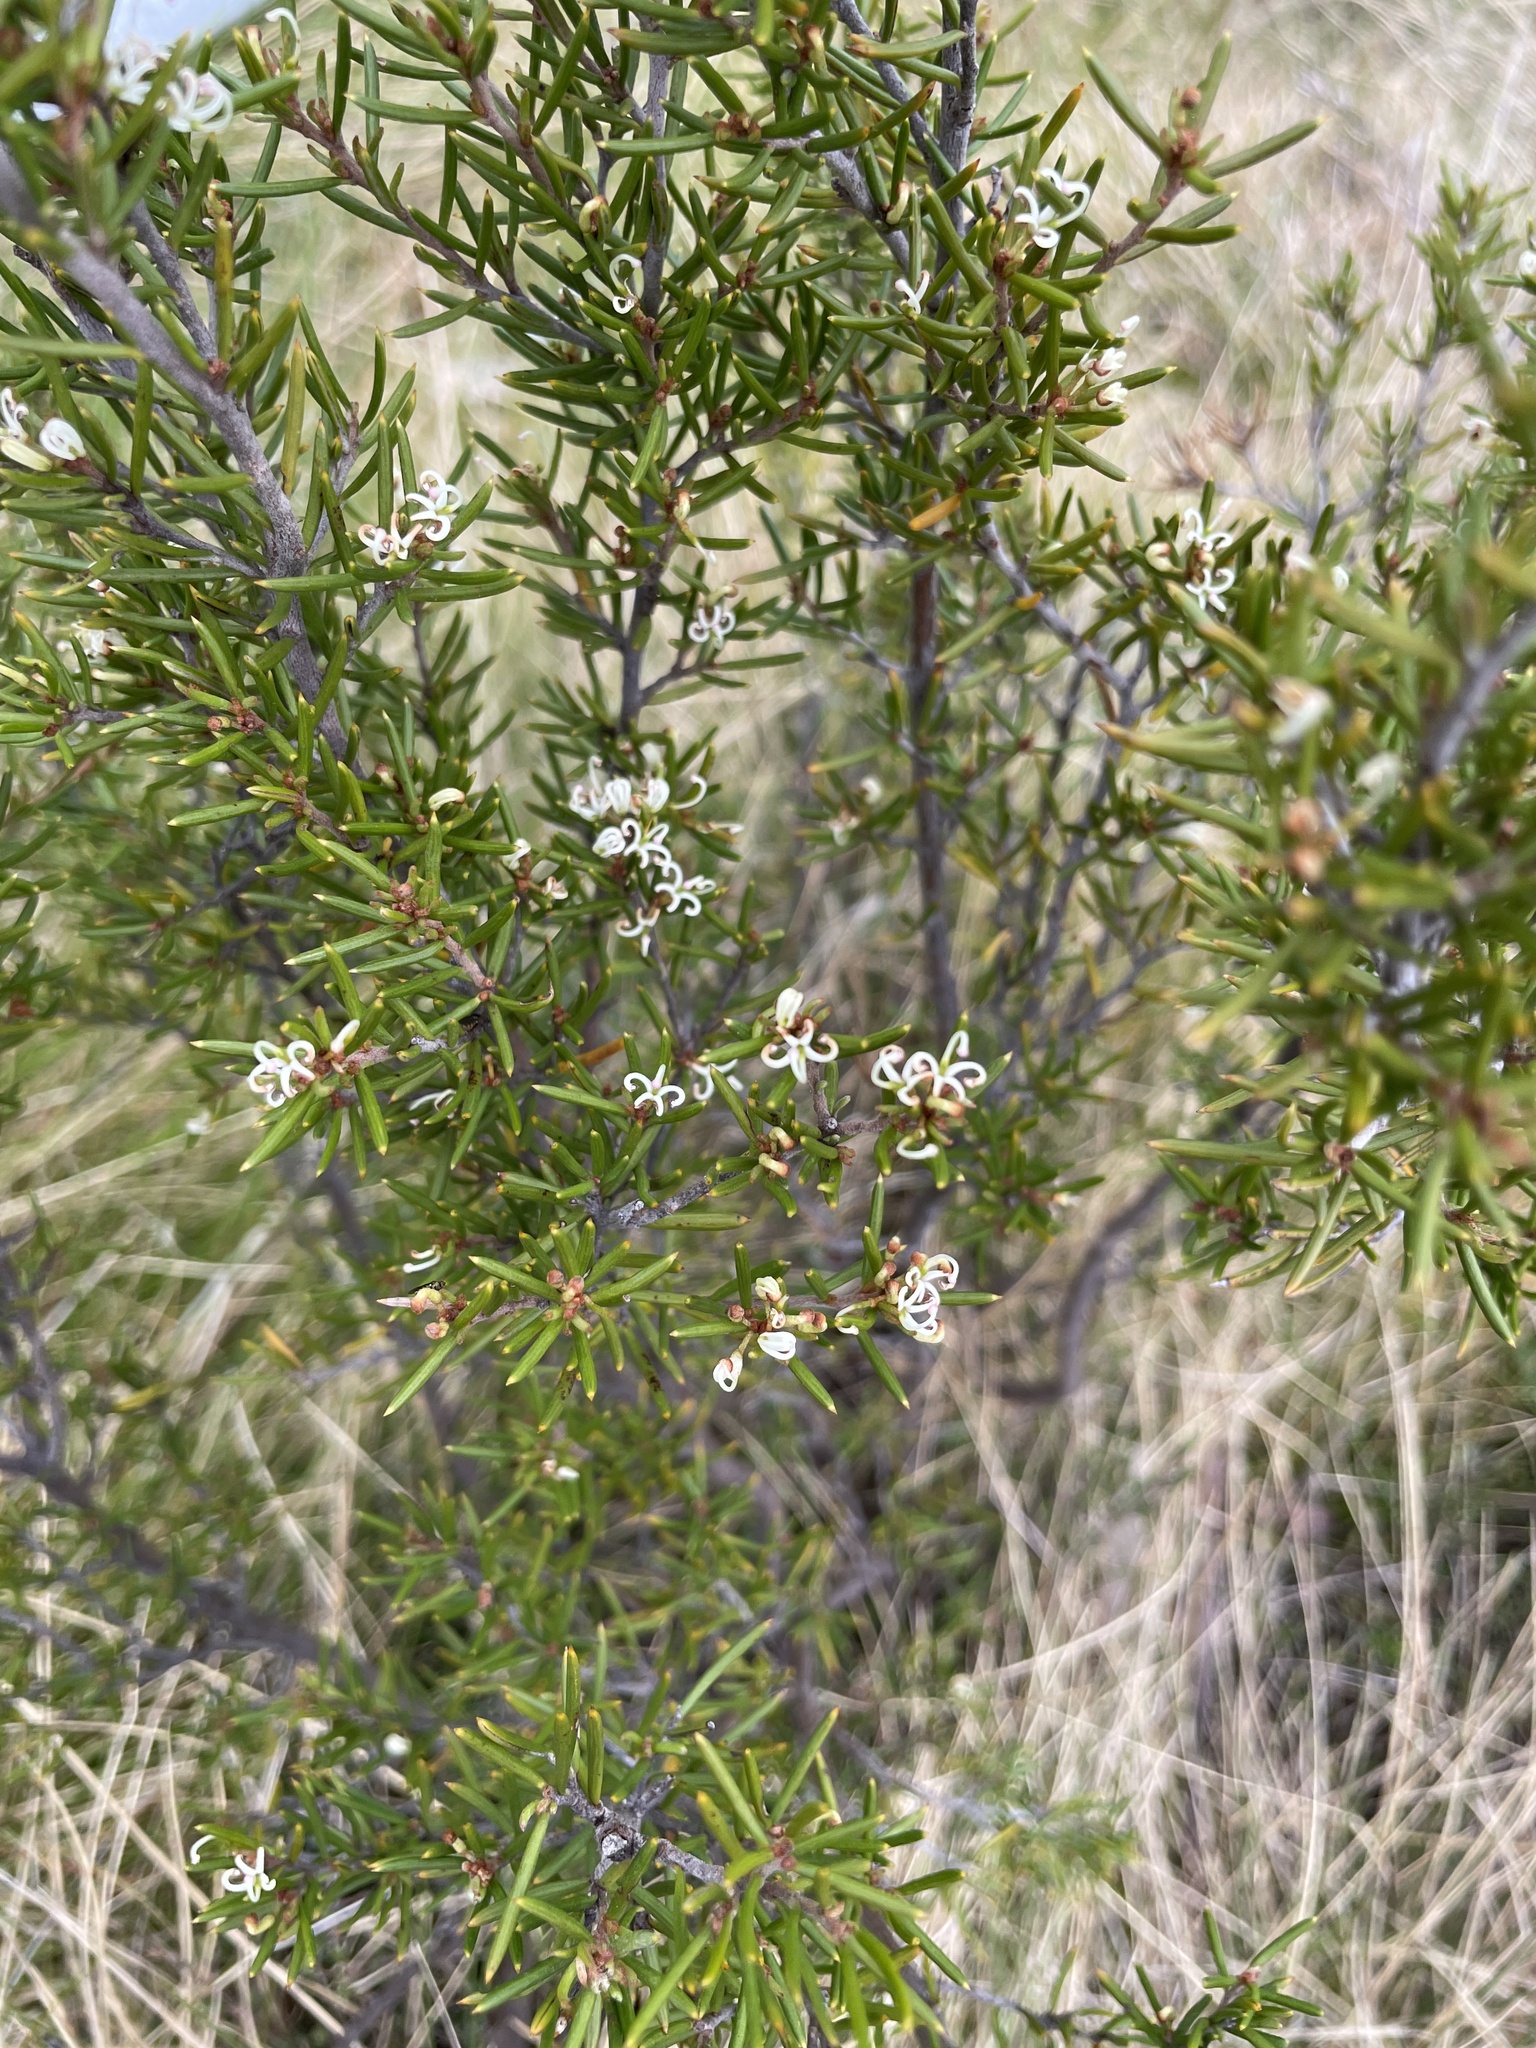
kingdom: Plantae
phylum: Tracheophyta
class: Magnoliopsida
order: Proteales
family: Proteaceae
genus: Grevillea
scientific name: Grevillea australis
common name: Alpine grevillea
